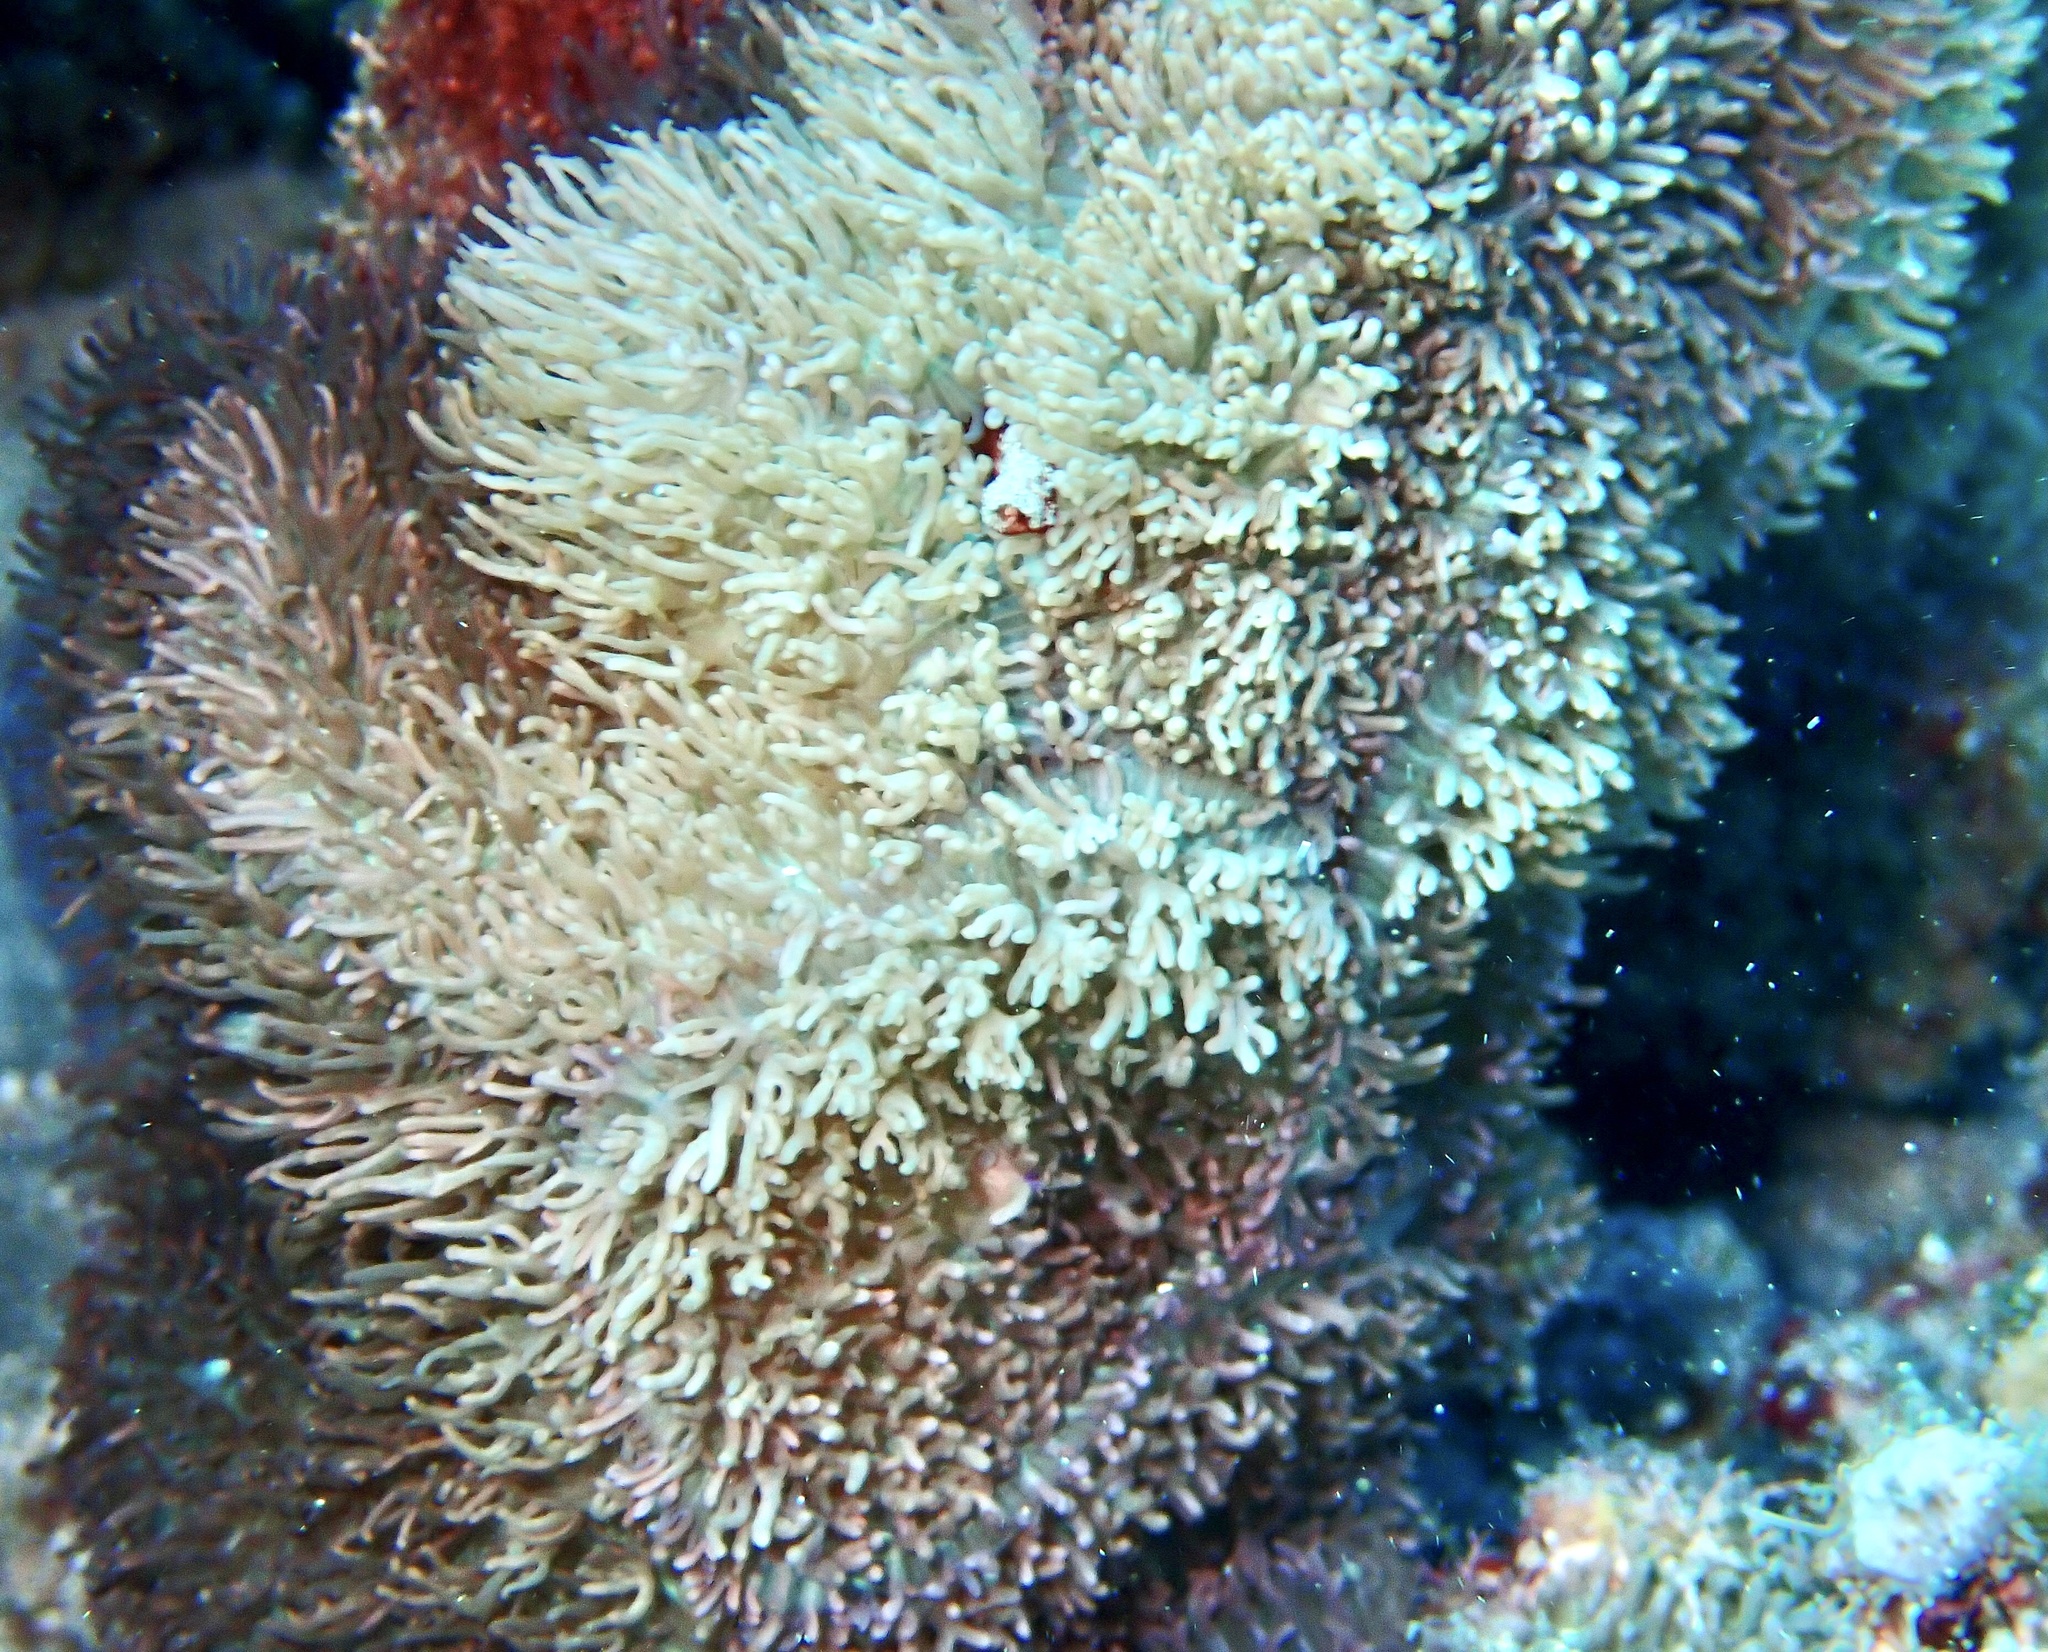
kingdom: Animalia
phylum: Cnidaria
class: Anthozoa
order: Corallimorpharia
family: Discosomidae
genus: Rhodactis
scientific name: Rhodactis rhodostoma
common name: Red-mouth mushroom anemone
